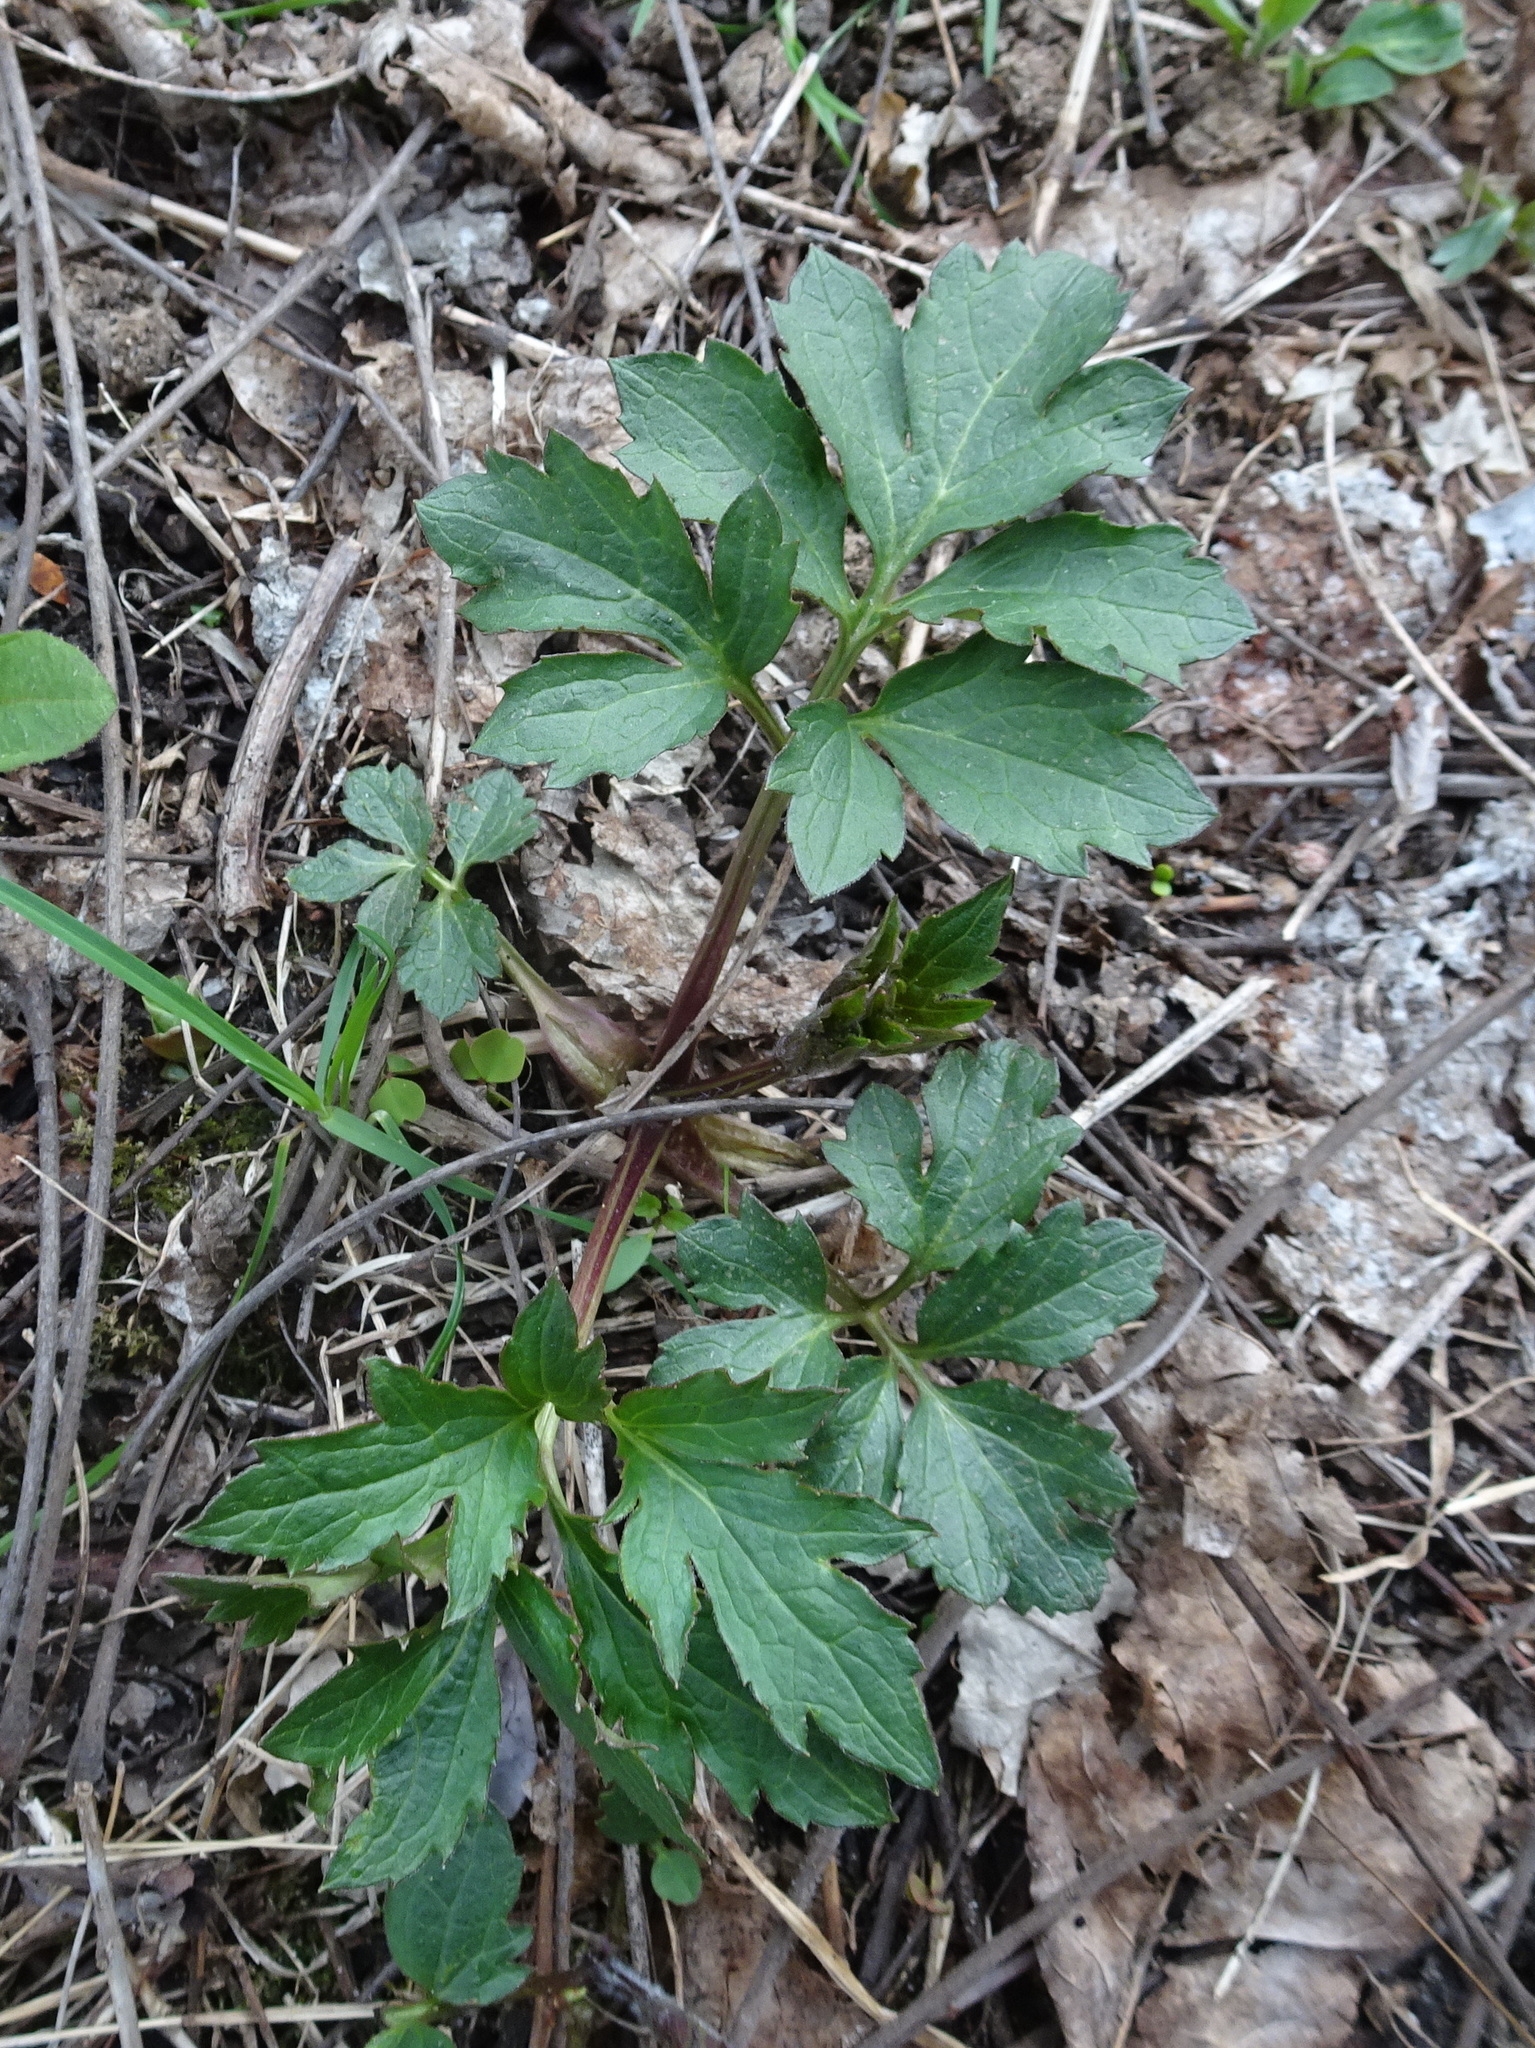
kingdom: Plantae
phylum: Tracheophyta
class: Magnoliopsida
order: Asterales
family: Asteraceae
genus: Rudbeckia
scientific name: Rudbeckia laciniata
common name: Coneflower
